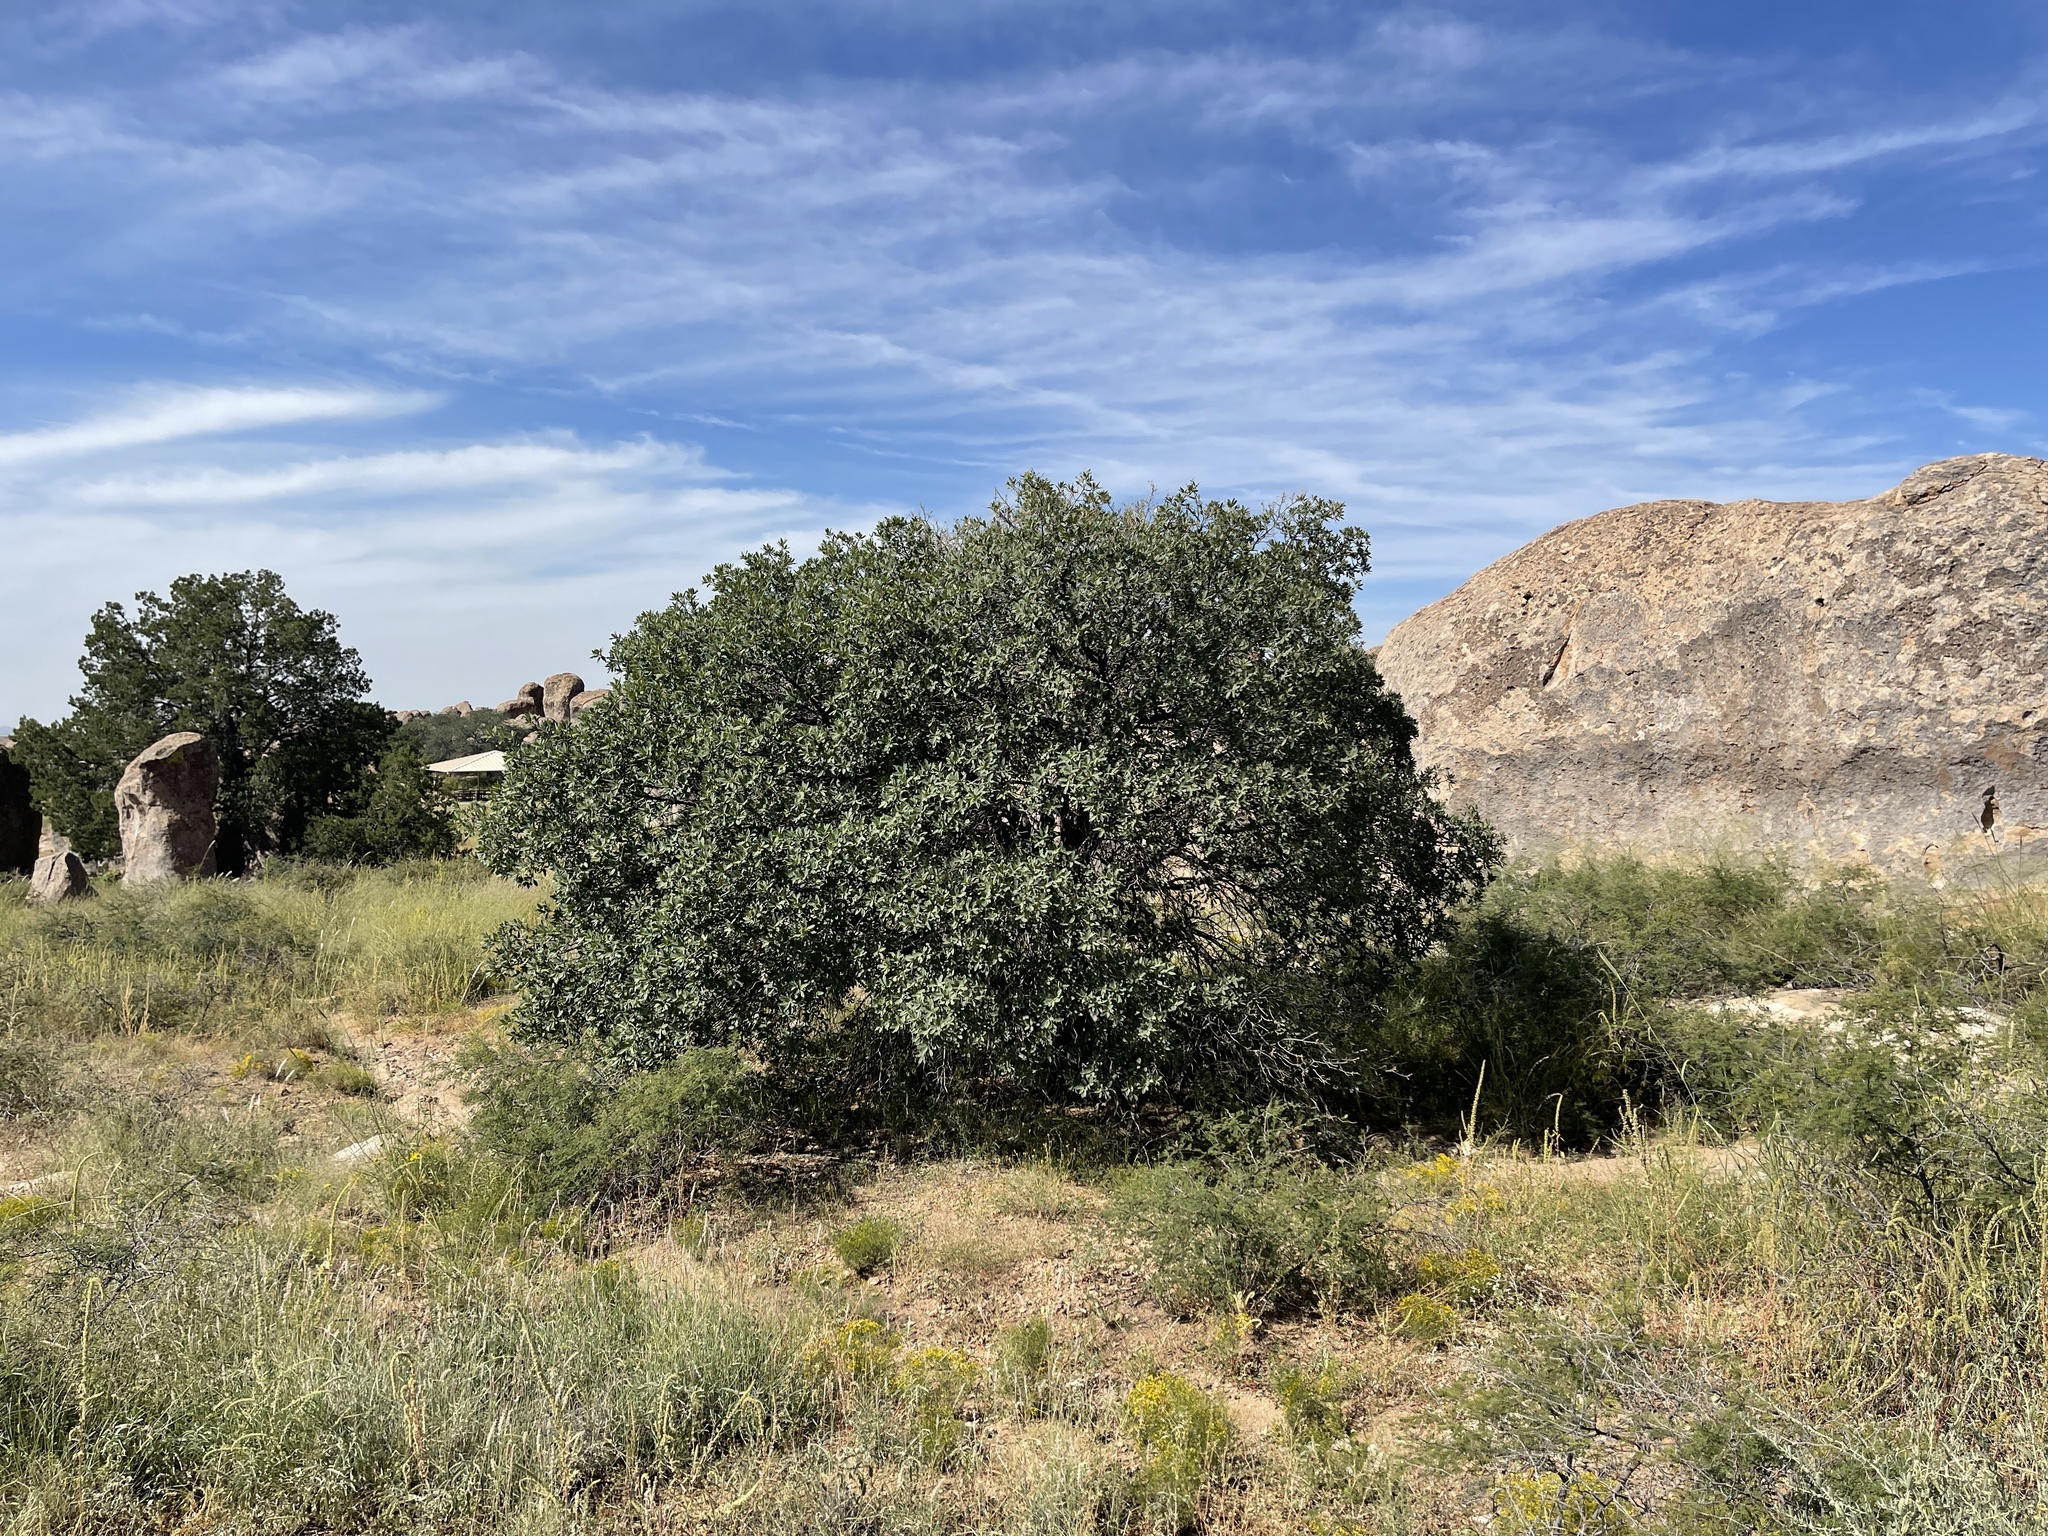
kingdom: Plantae
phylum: Tracheophyta
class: Magnoliopsida
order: Fagales
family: Fagaceae
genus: Quercus
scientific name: Quercus grisea
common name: Gray oak
